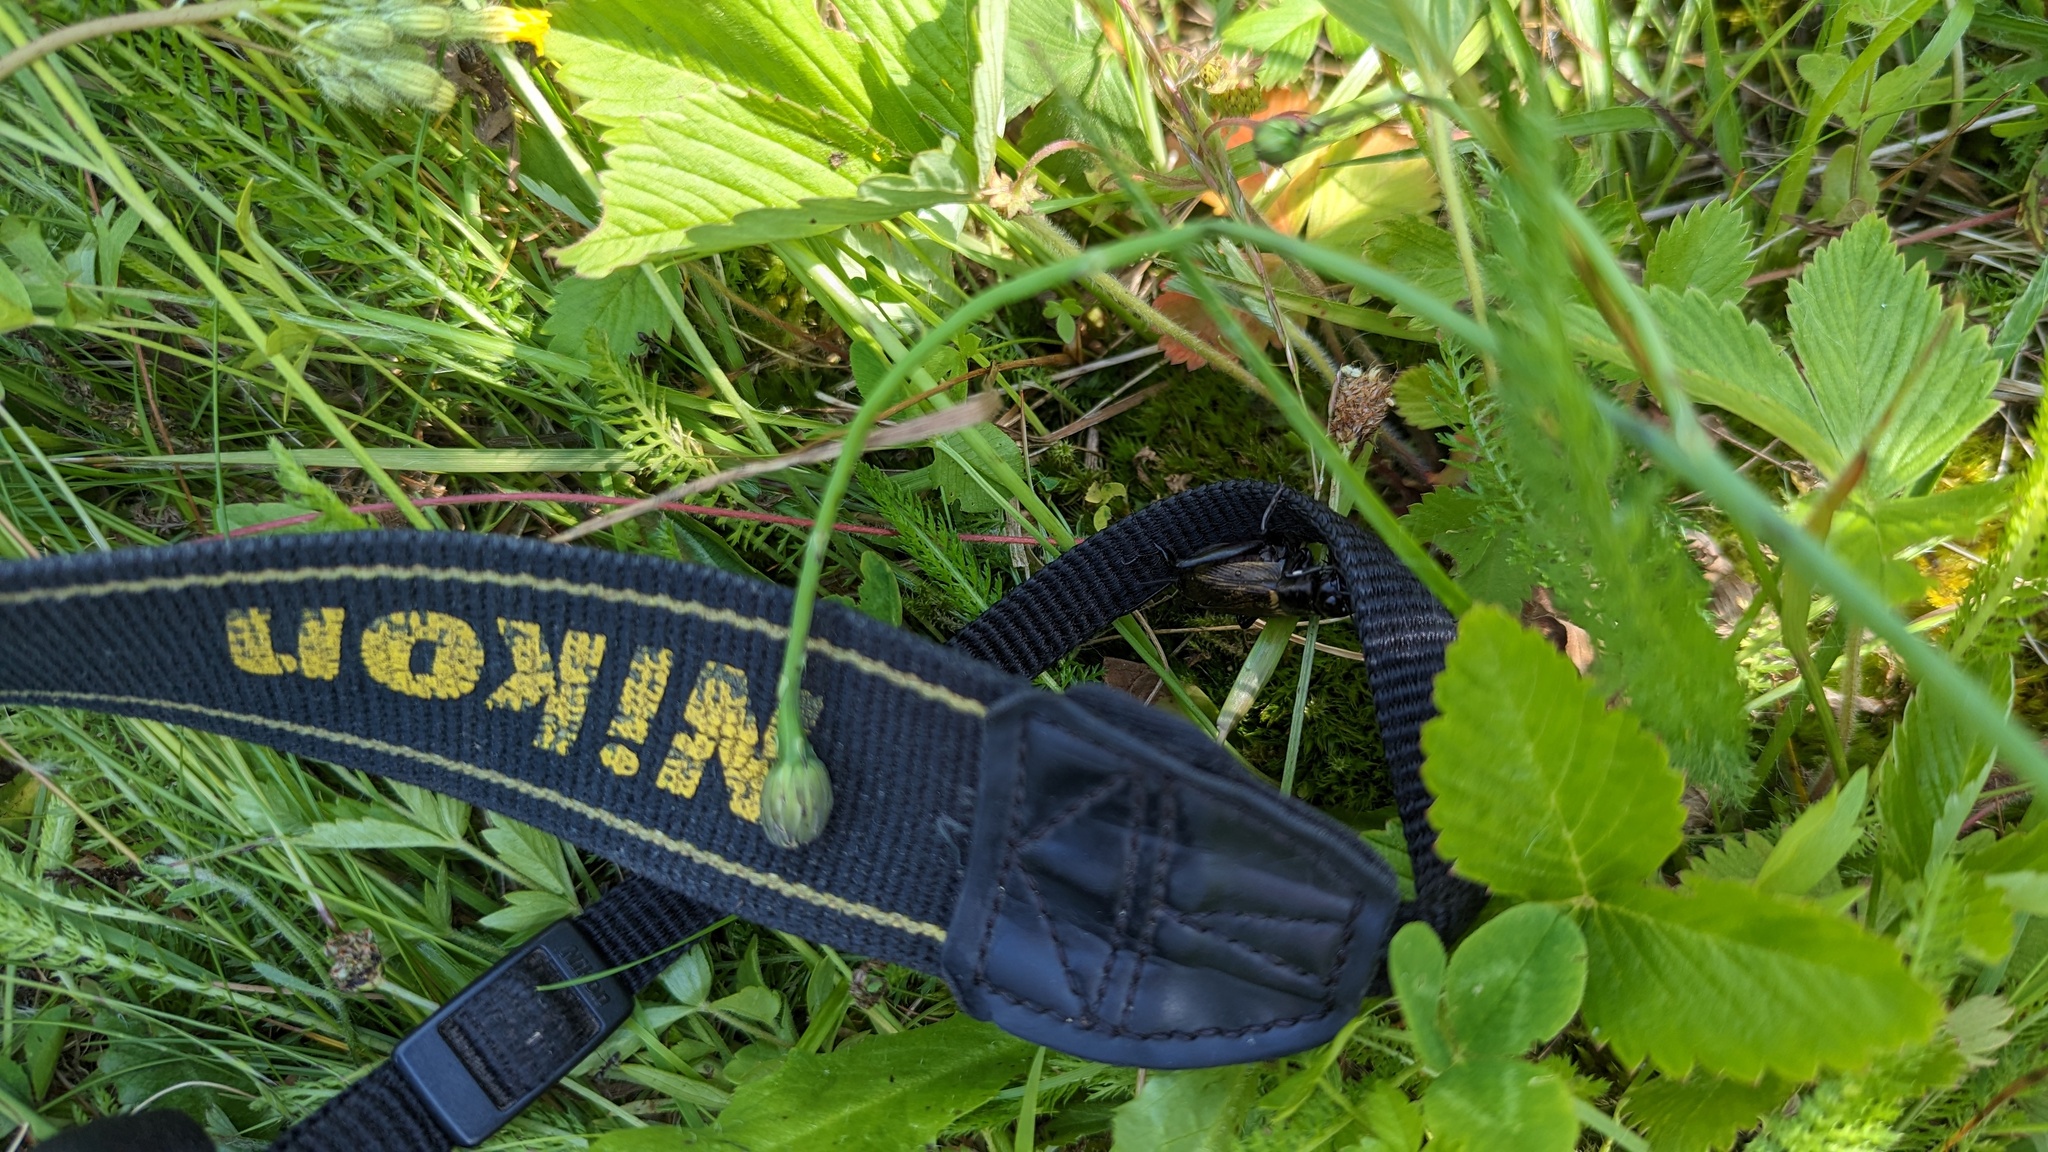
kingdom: Animalia
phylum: Arthropoda
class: Insecta
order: Orthoptera
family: Gryllidae
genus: Gryllus
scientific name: Gryllus campestris
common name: Field cricket
